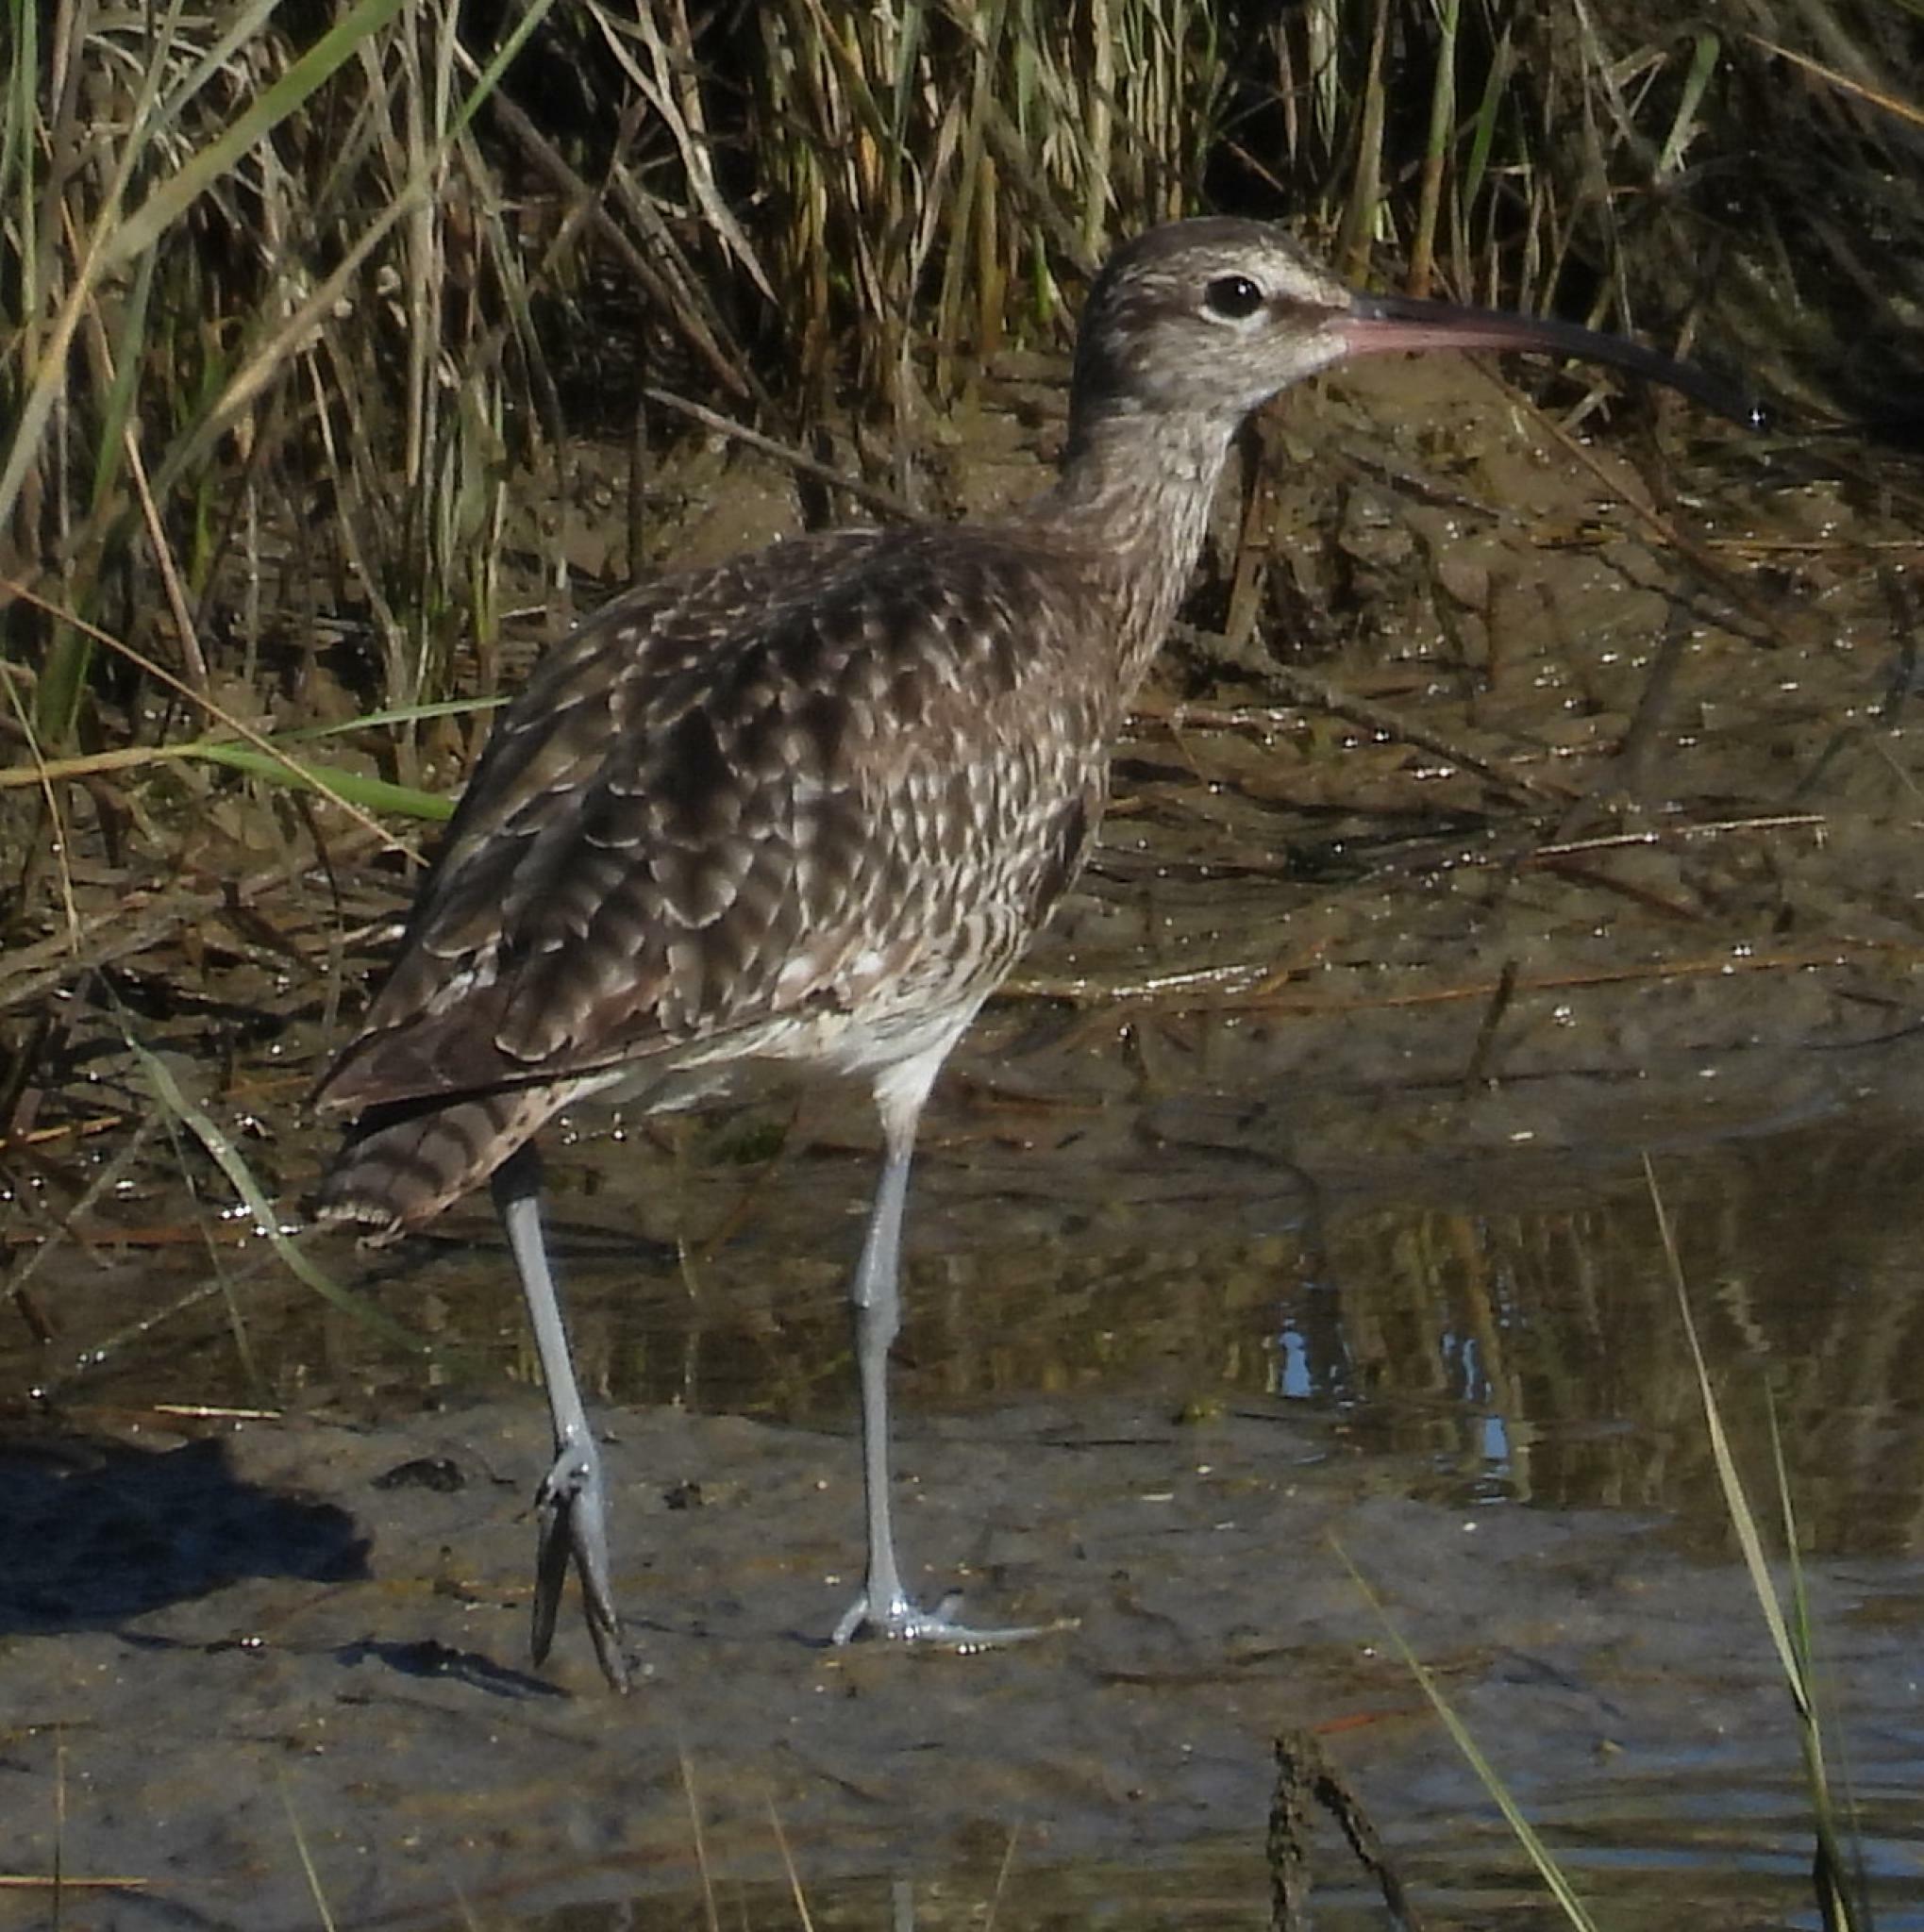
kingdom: Animalia
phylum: Chordata
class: Aves
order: Charadriiformes
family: Scolopacidae
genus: Numenius
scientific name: Numenius phaeopus
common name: Whimbrel
